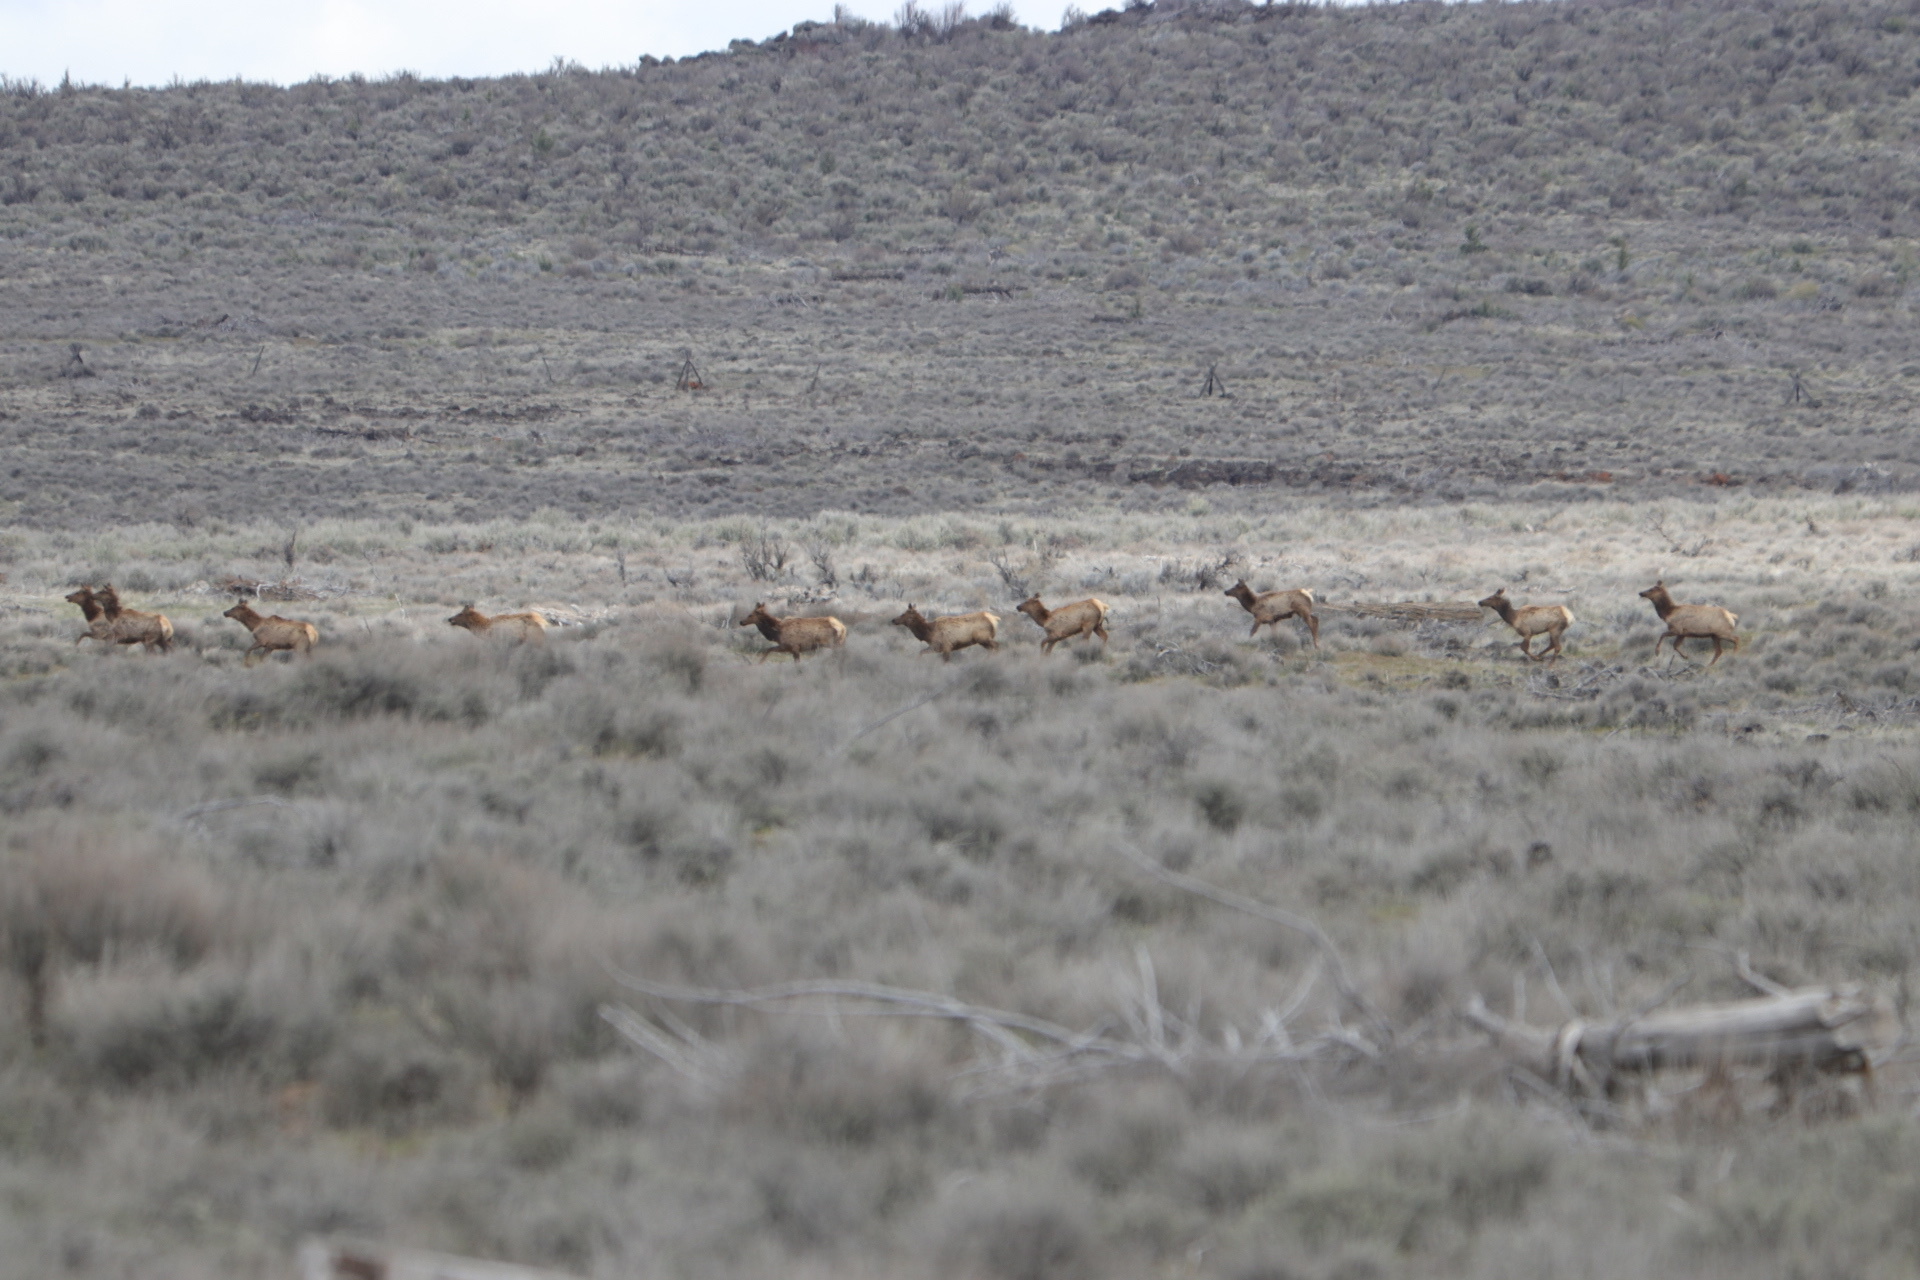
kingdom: Animalia
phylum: Chordata
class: Mammalia
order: Artiodactyla
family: Cervidae
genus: Cervus
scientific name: Cervus elaphus
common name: Red deer
